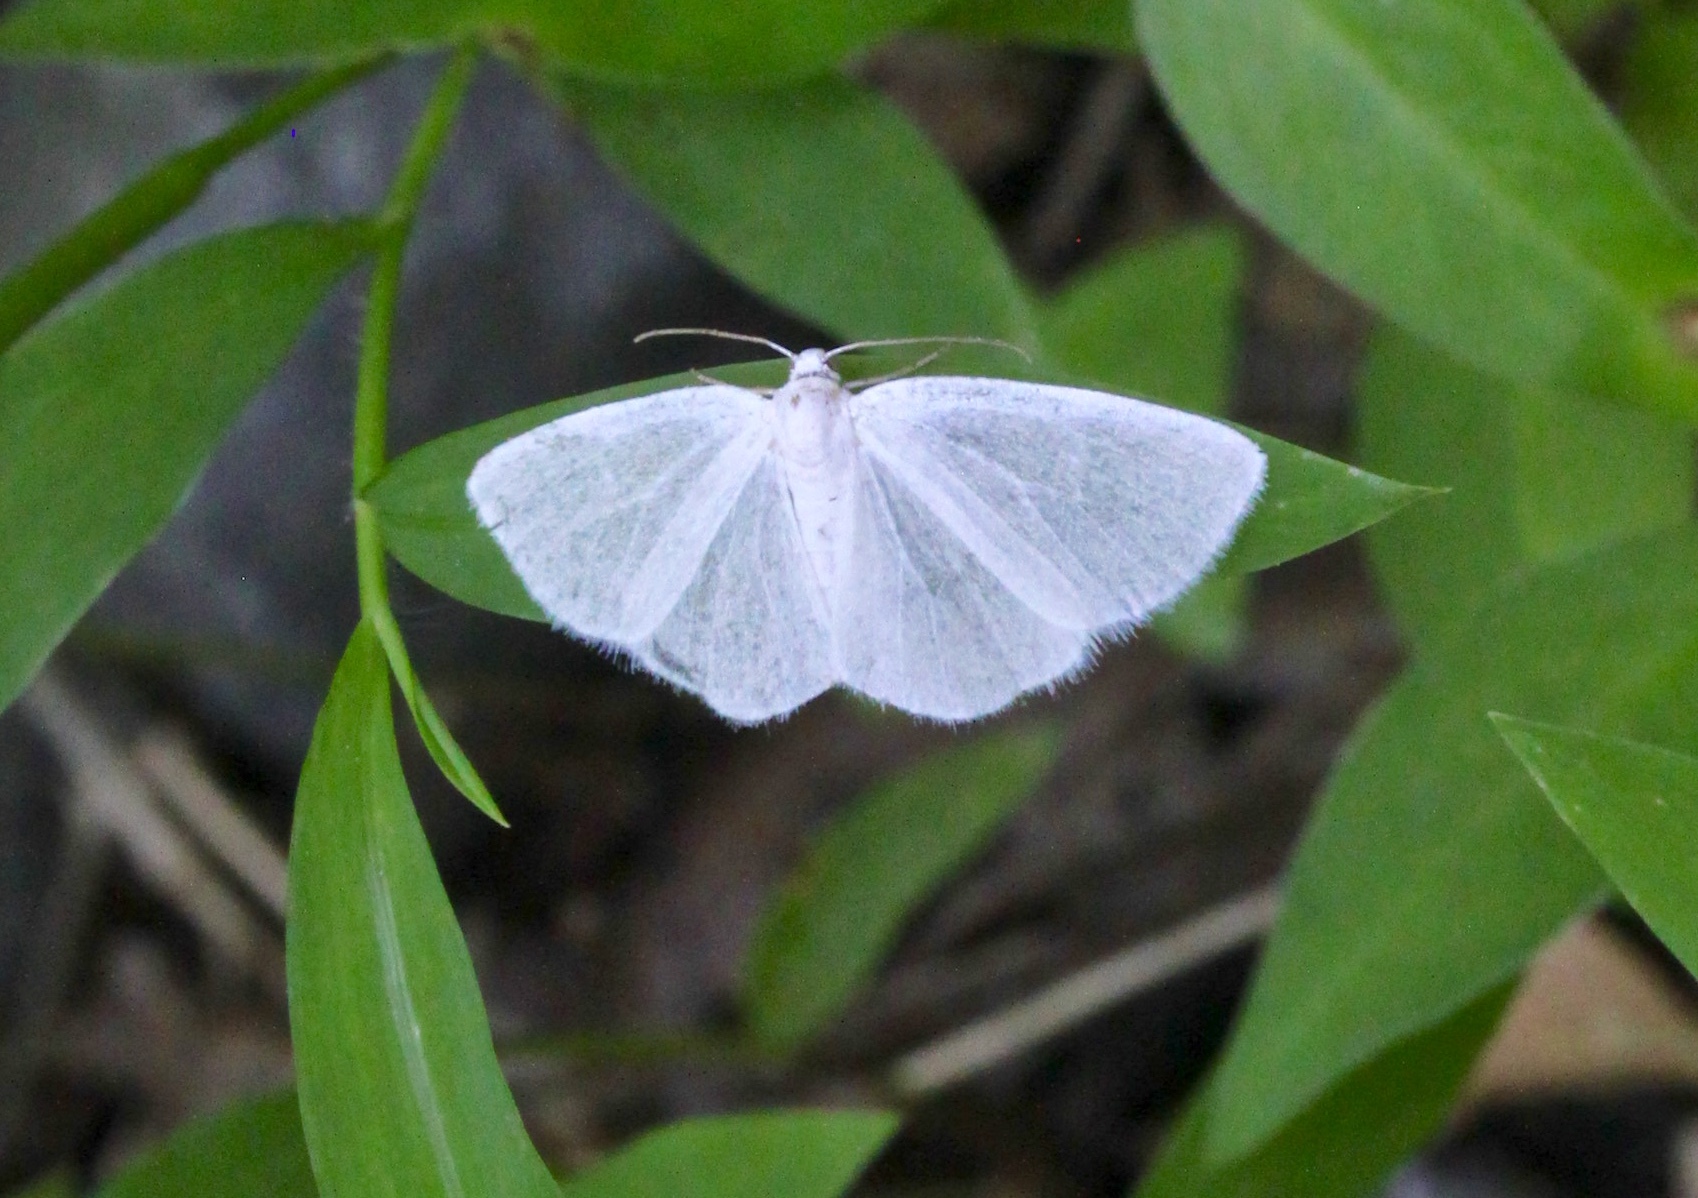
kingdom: Animalia
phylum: Arthropoda
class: Insecta
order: Lepidoptera
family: Geometridae
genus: Lomographa
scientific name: Lomographa vestaliata
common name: White spring moth
